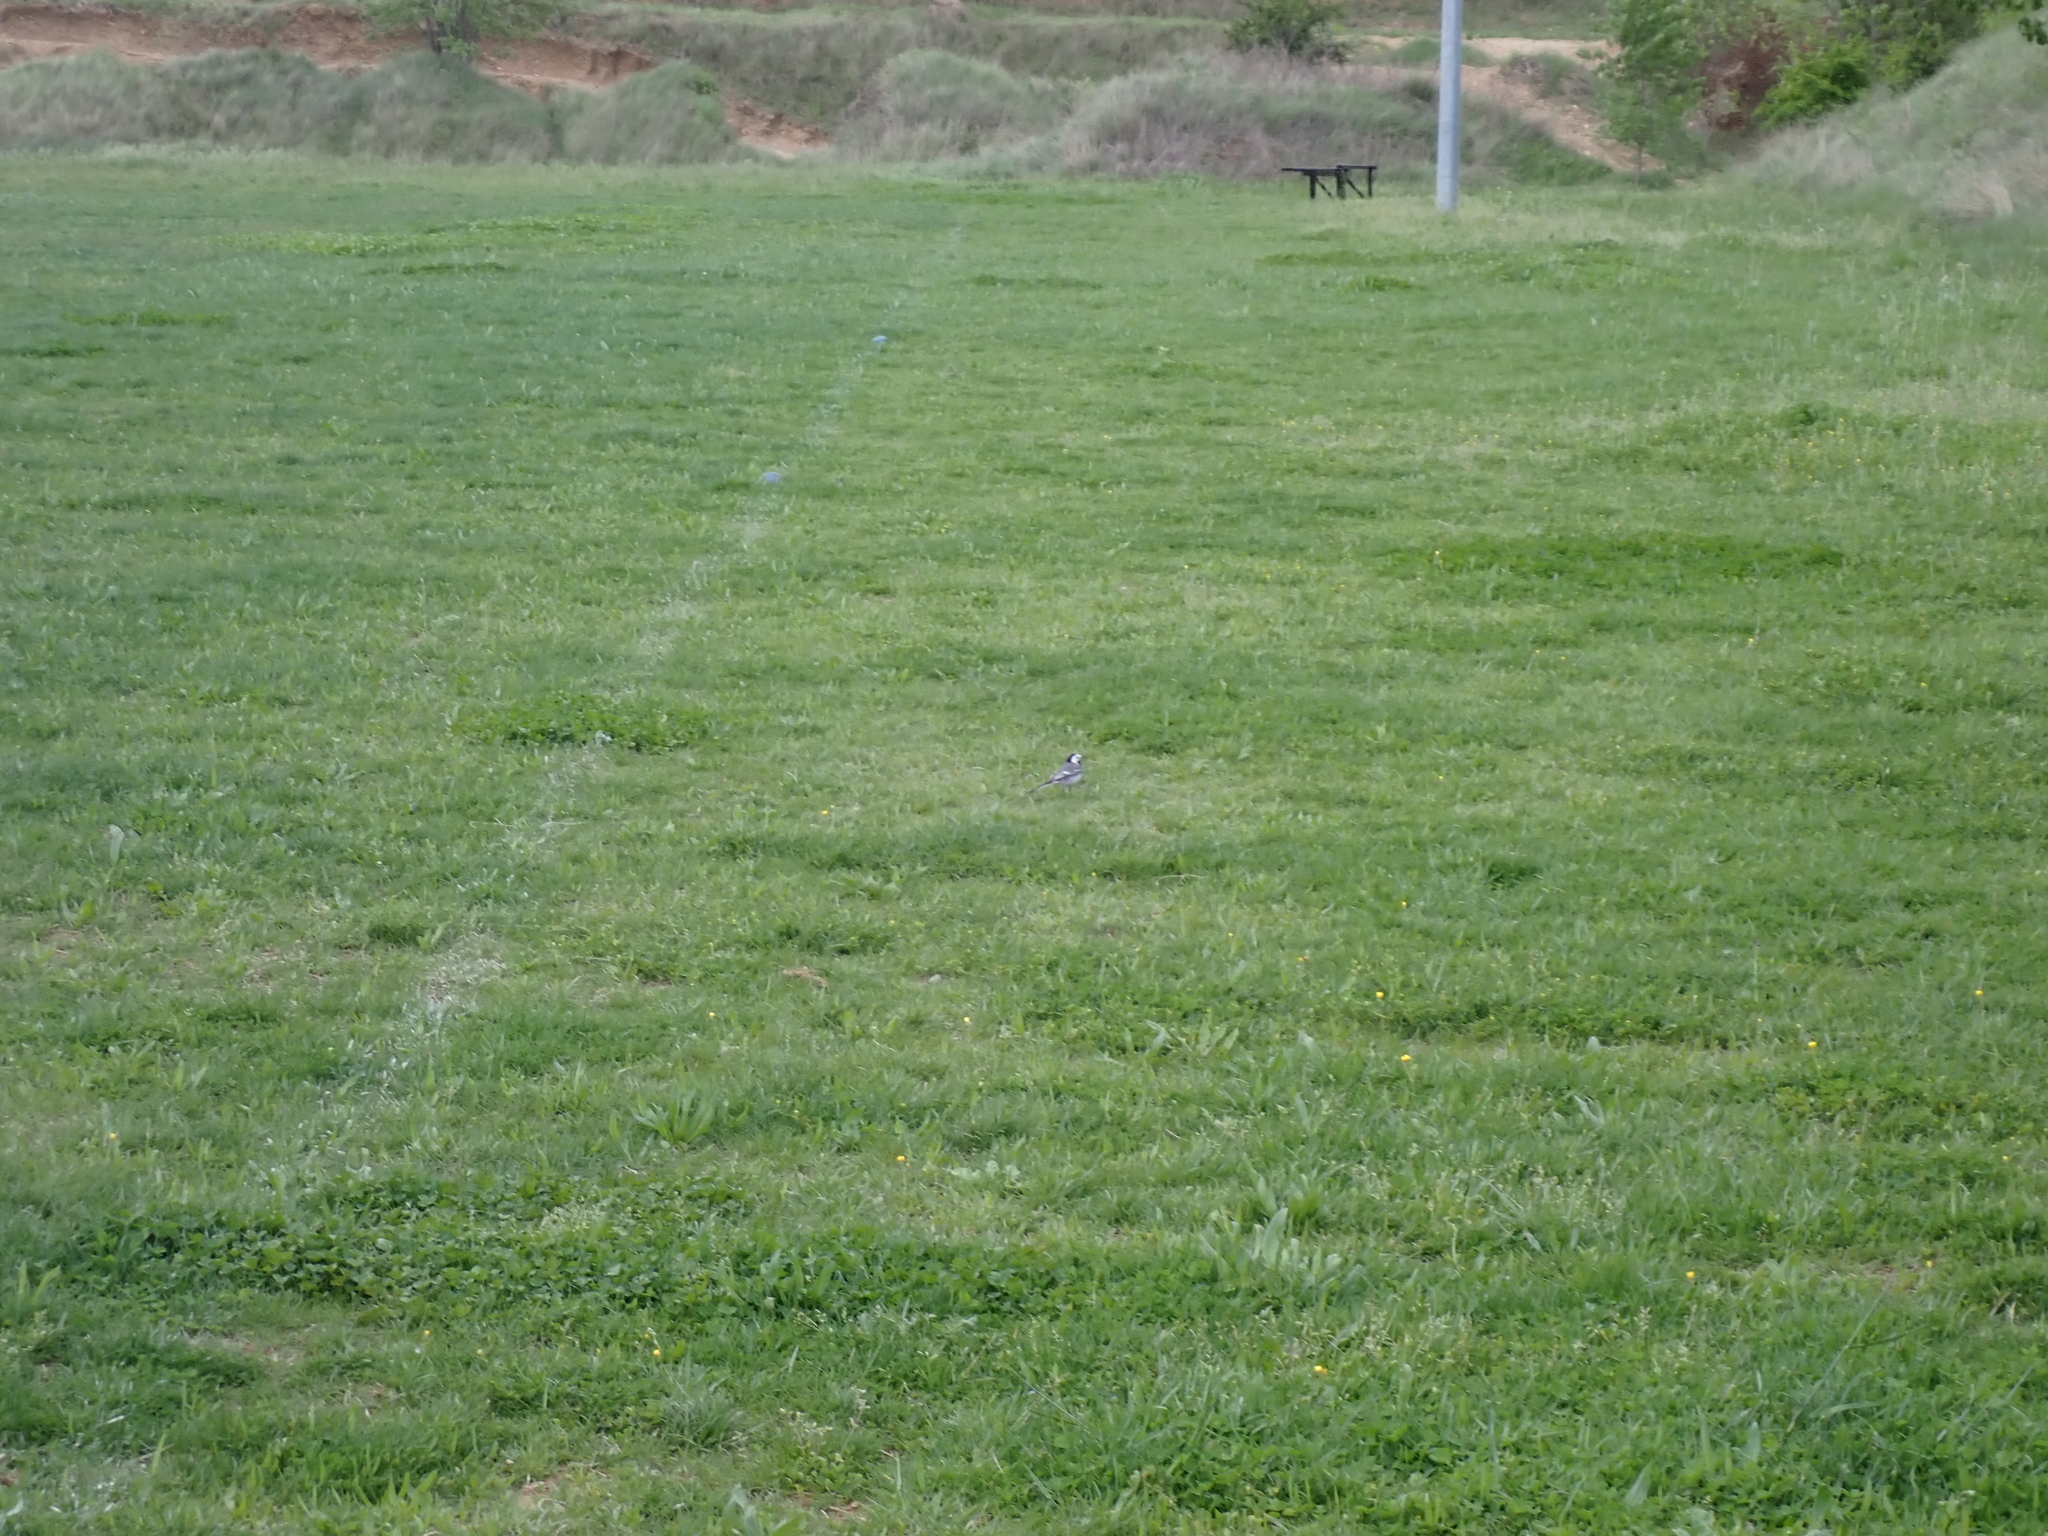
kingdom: Animalia
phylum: Chordata
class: Aves
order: Passeriformes
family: Motacillidae
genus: Motacilla
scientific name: Motacilla alba
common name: White wagtail
